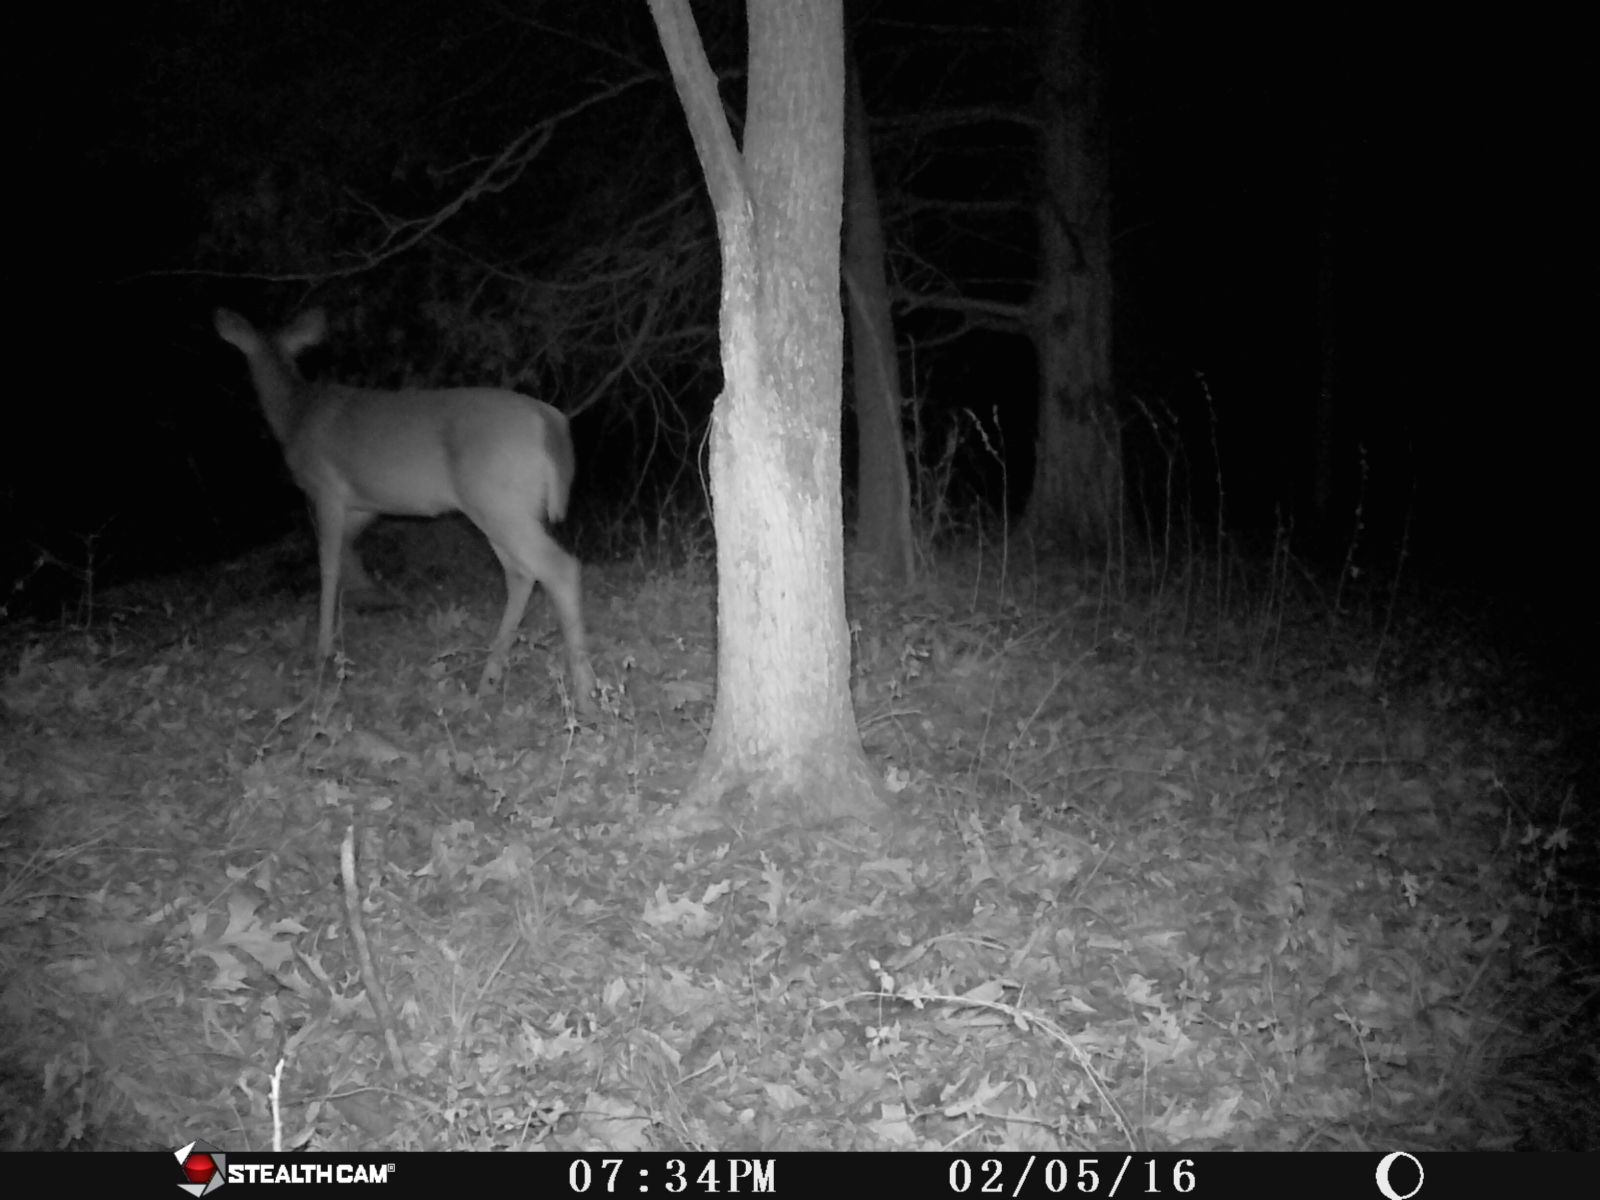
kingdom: Animalia
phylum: Chordata
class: Mammalia
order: Artiodactyla
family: Cervidae
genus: Odocoileus
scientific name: Odocoileus virginianus
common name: White-tailed deer
